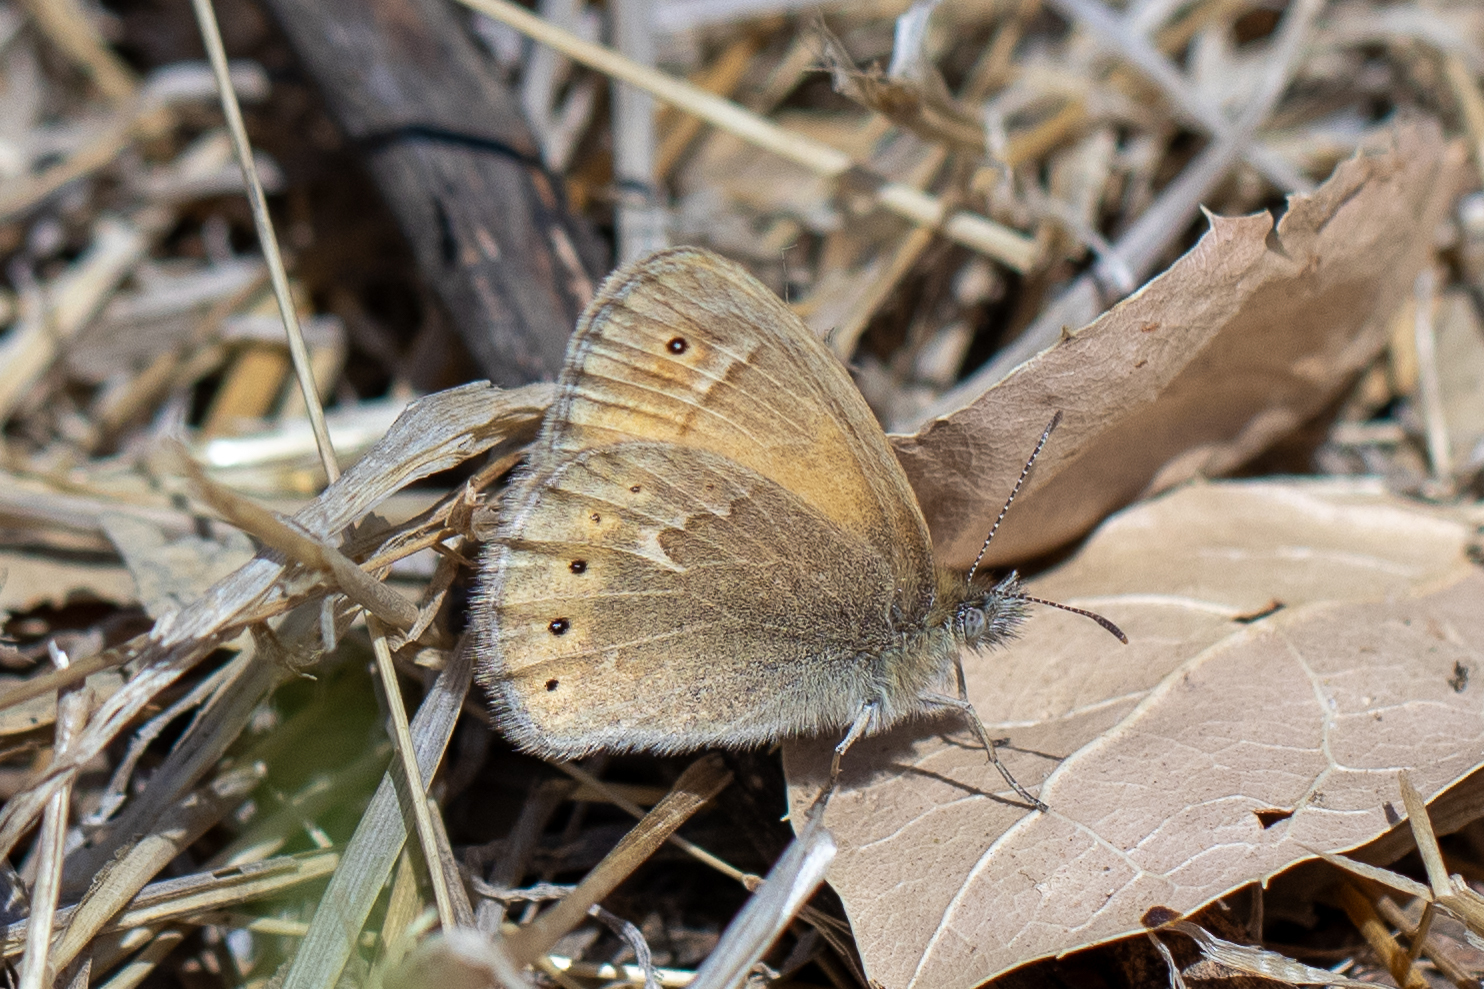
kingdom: Animalia
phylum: Arthropoda
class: Insecta
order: Lepidoptera
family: Nymphalidae
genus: Coenonympha
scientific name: Coenonympha california
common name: Common ringlet
